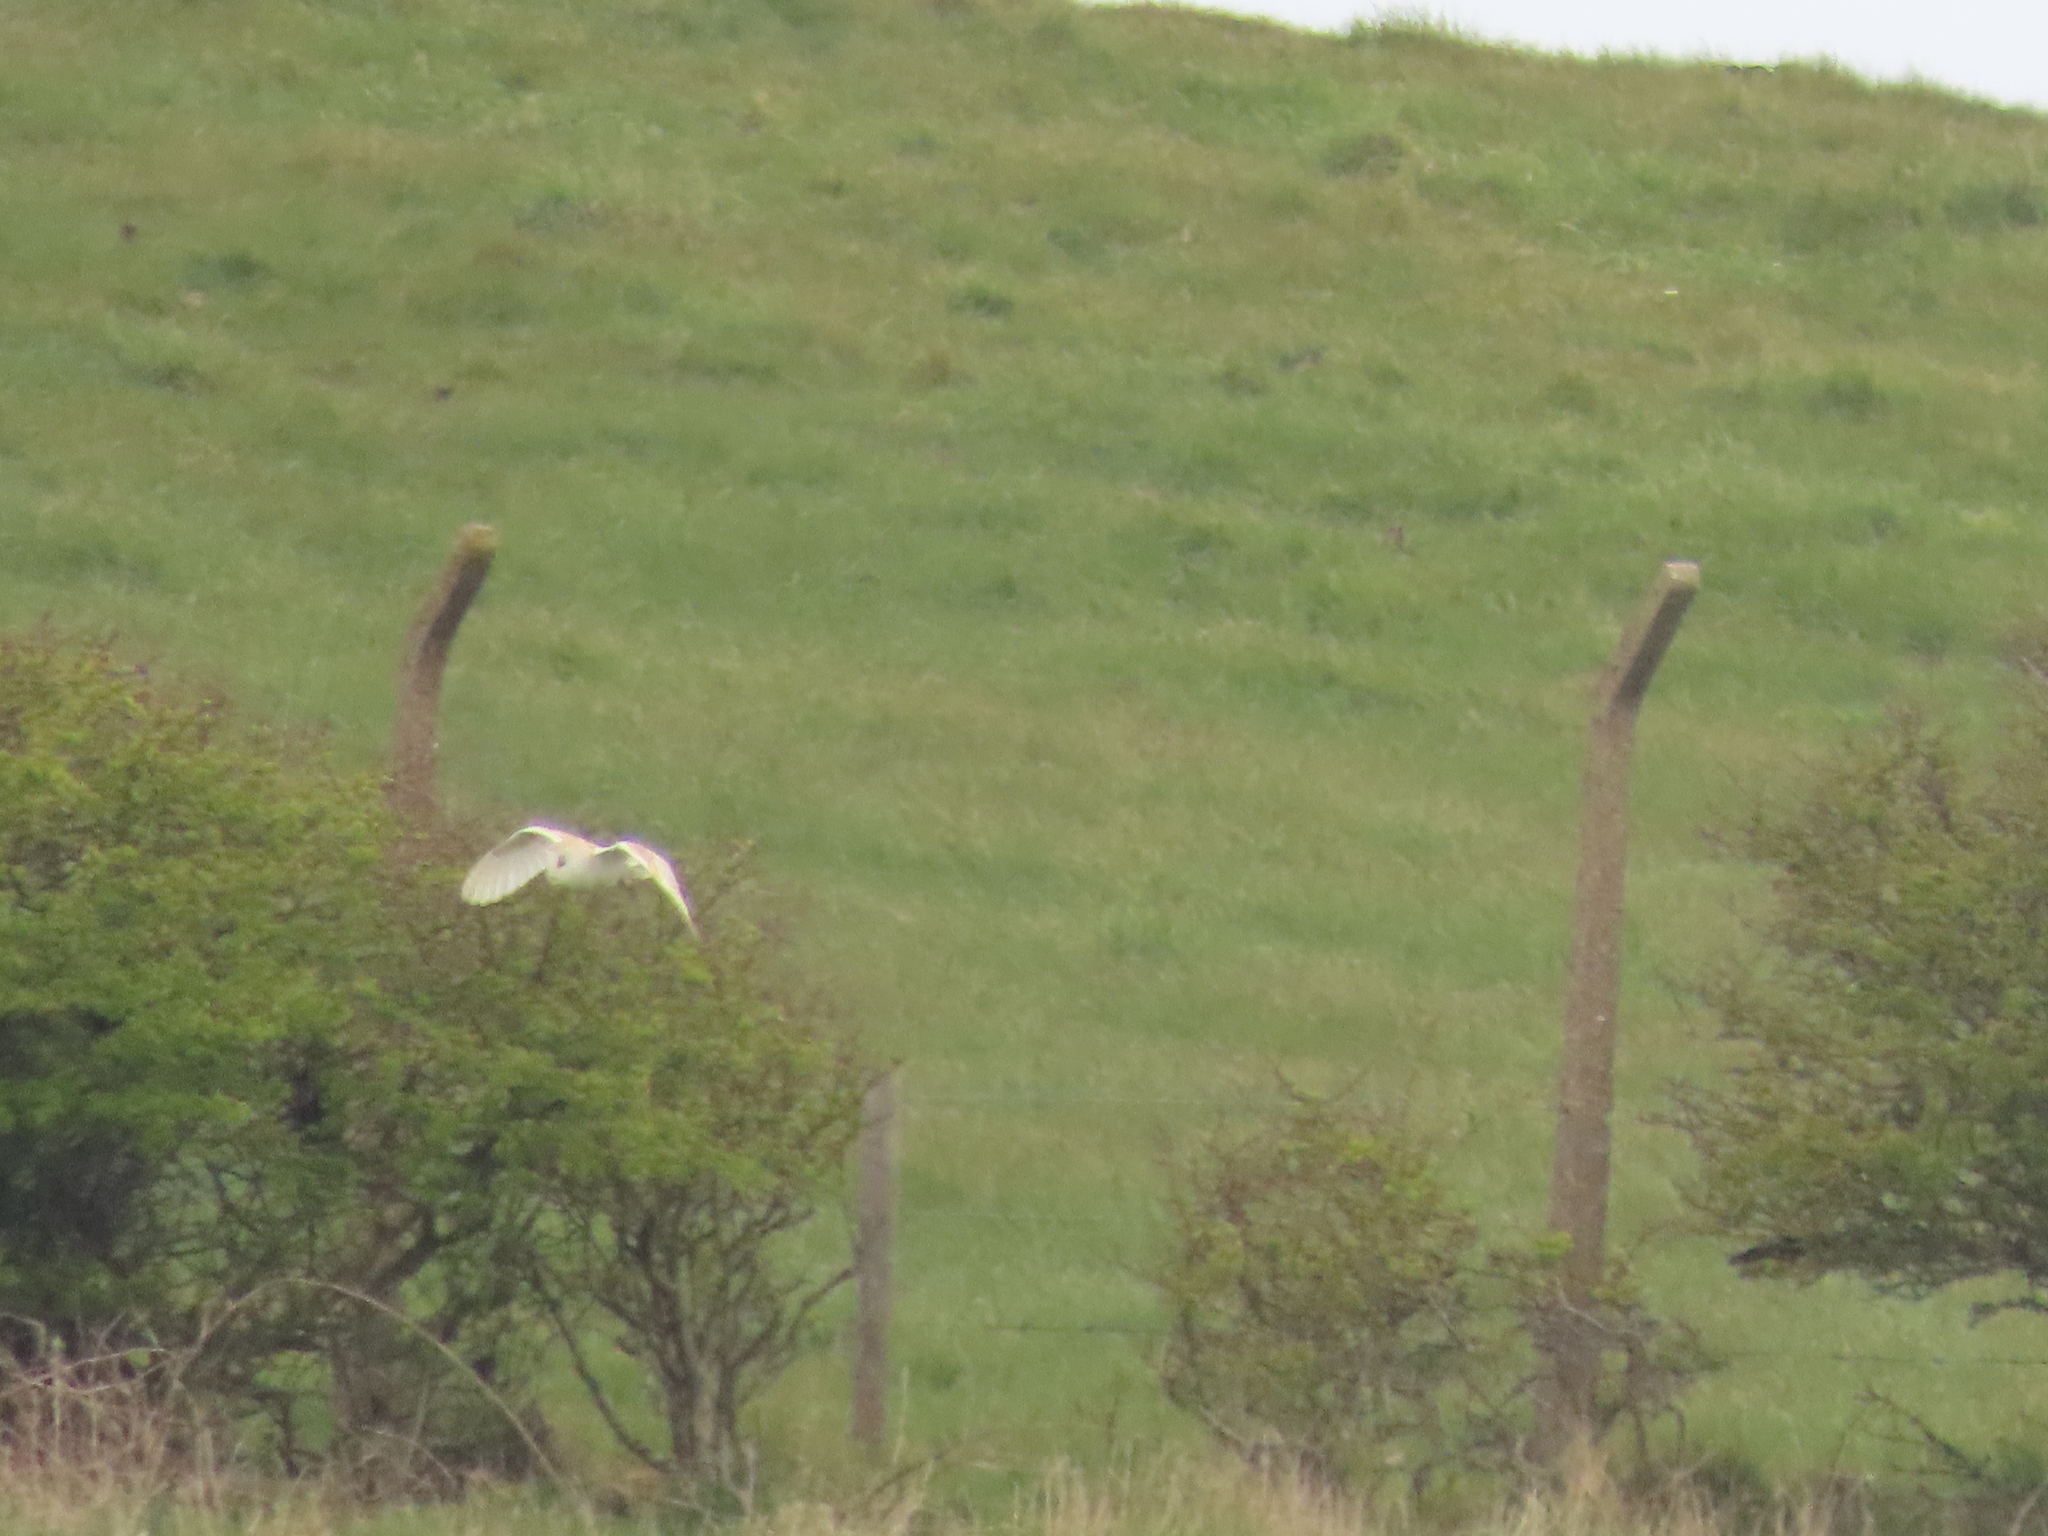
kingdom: Animalia
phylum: Chordata
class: Aves
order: Strigiformes
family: Tytonidae
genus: Tyto
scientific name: Tyto alba
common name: Barn owl
